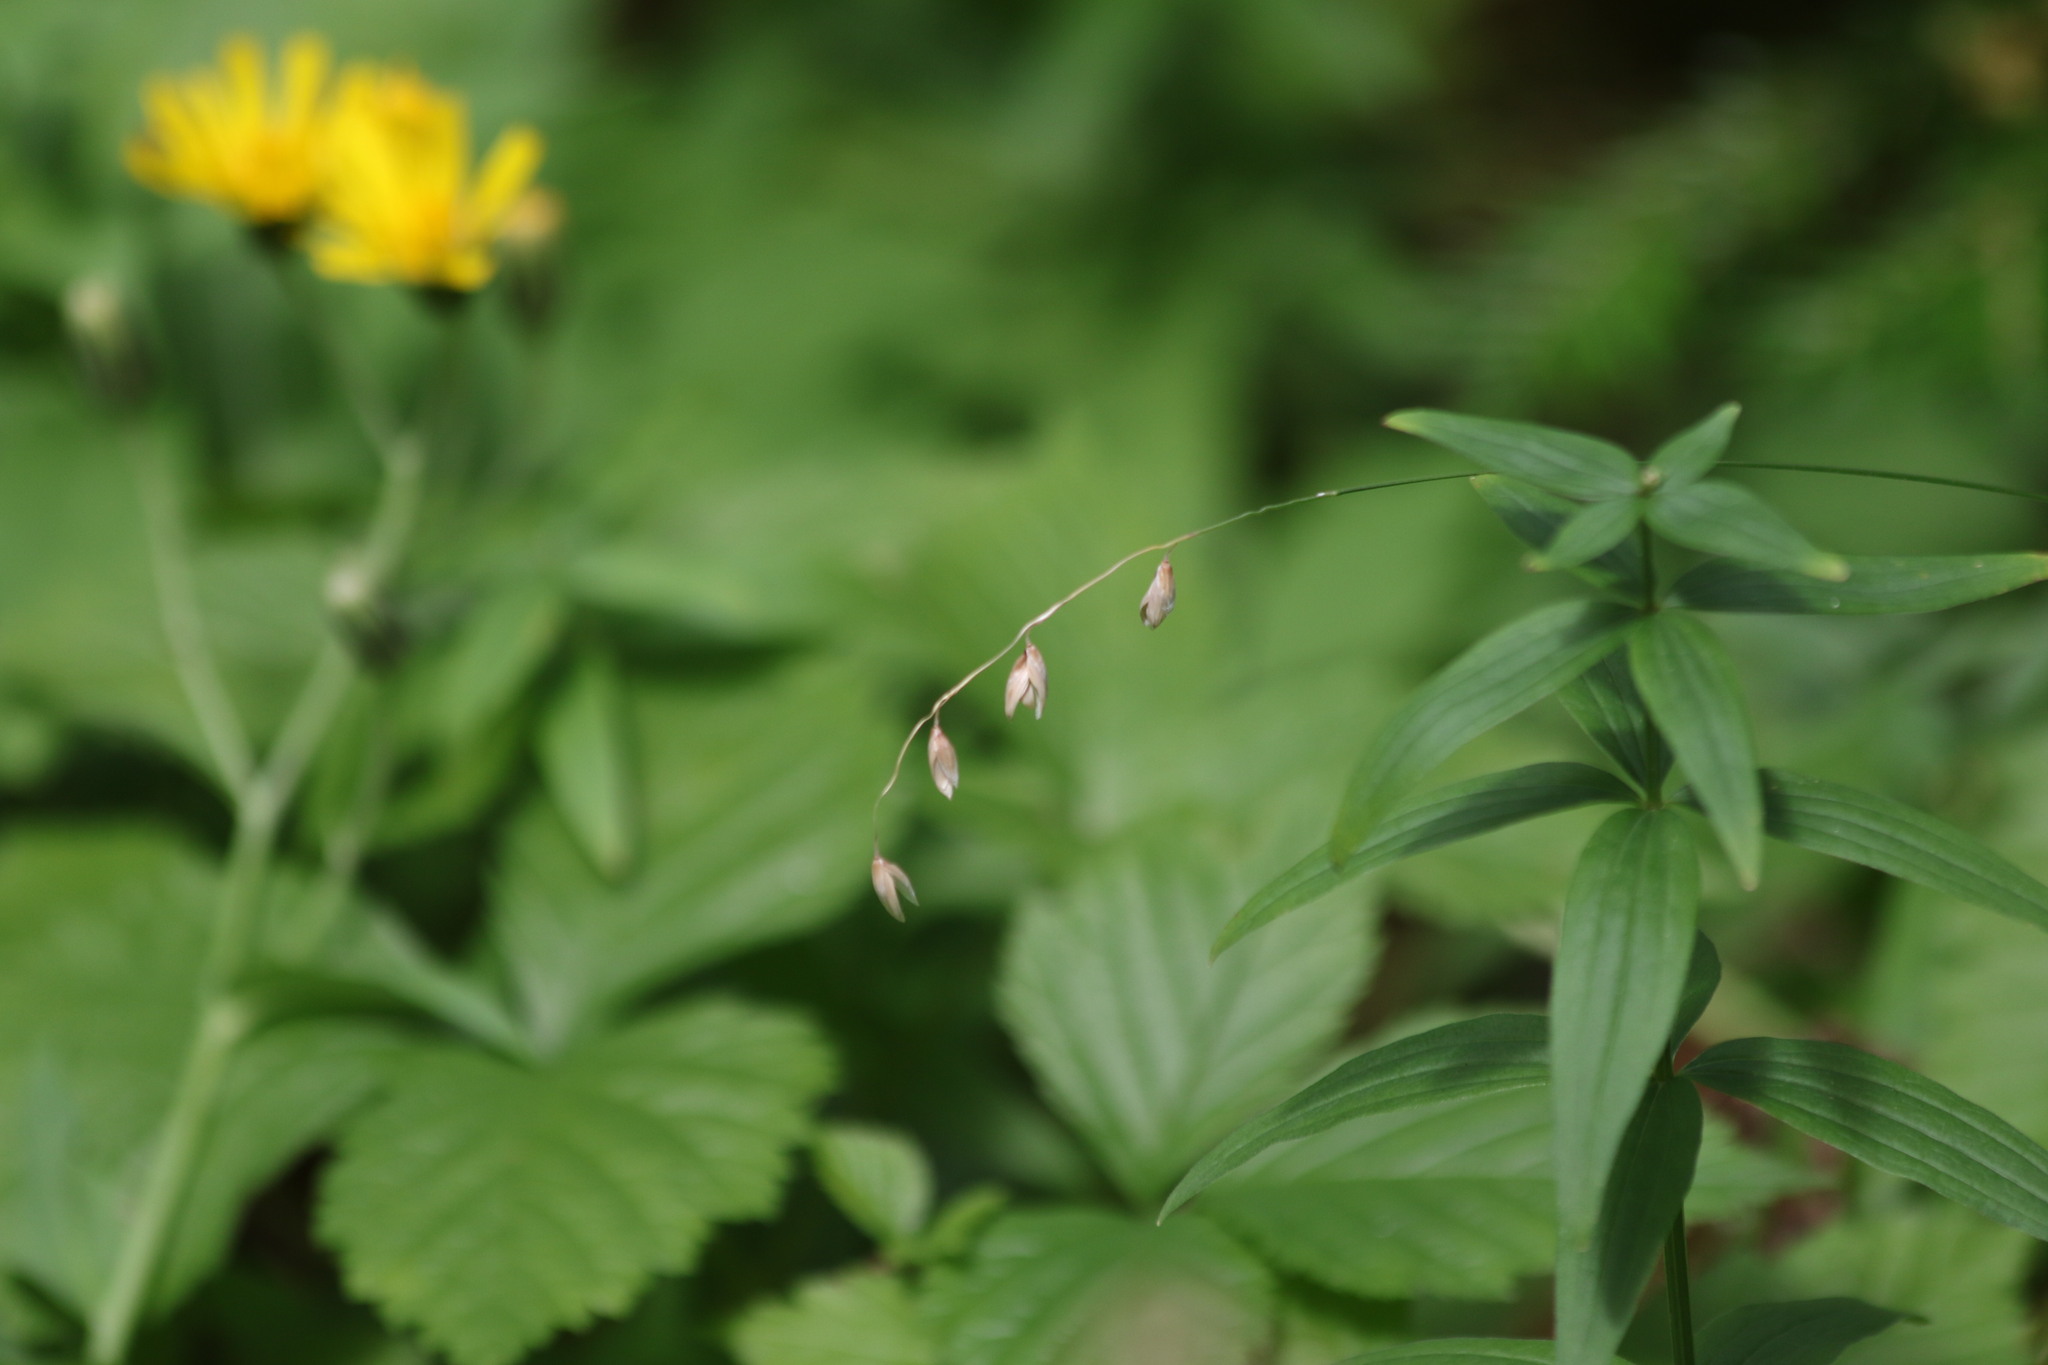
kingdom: Plantae
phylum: Tracheophyta
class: Liliopsida
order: Poales
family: Poaceae
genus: Melica
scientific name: Melica nutans
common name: Mountain melick
